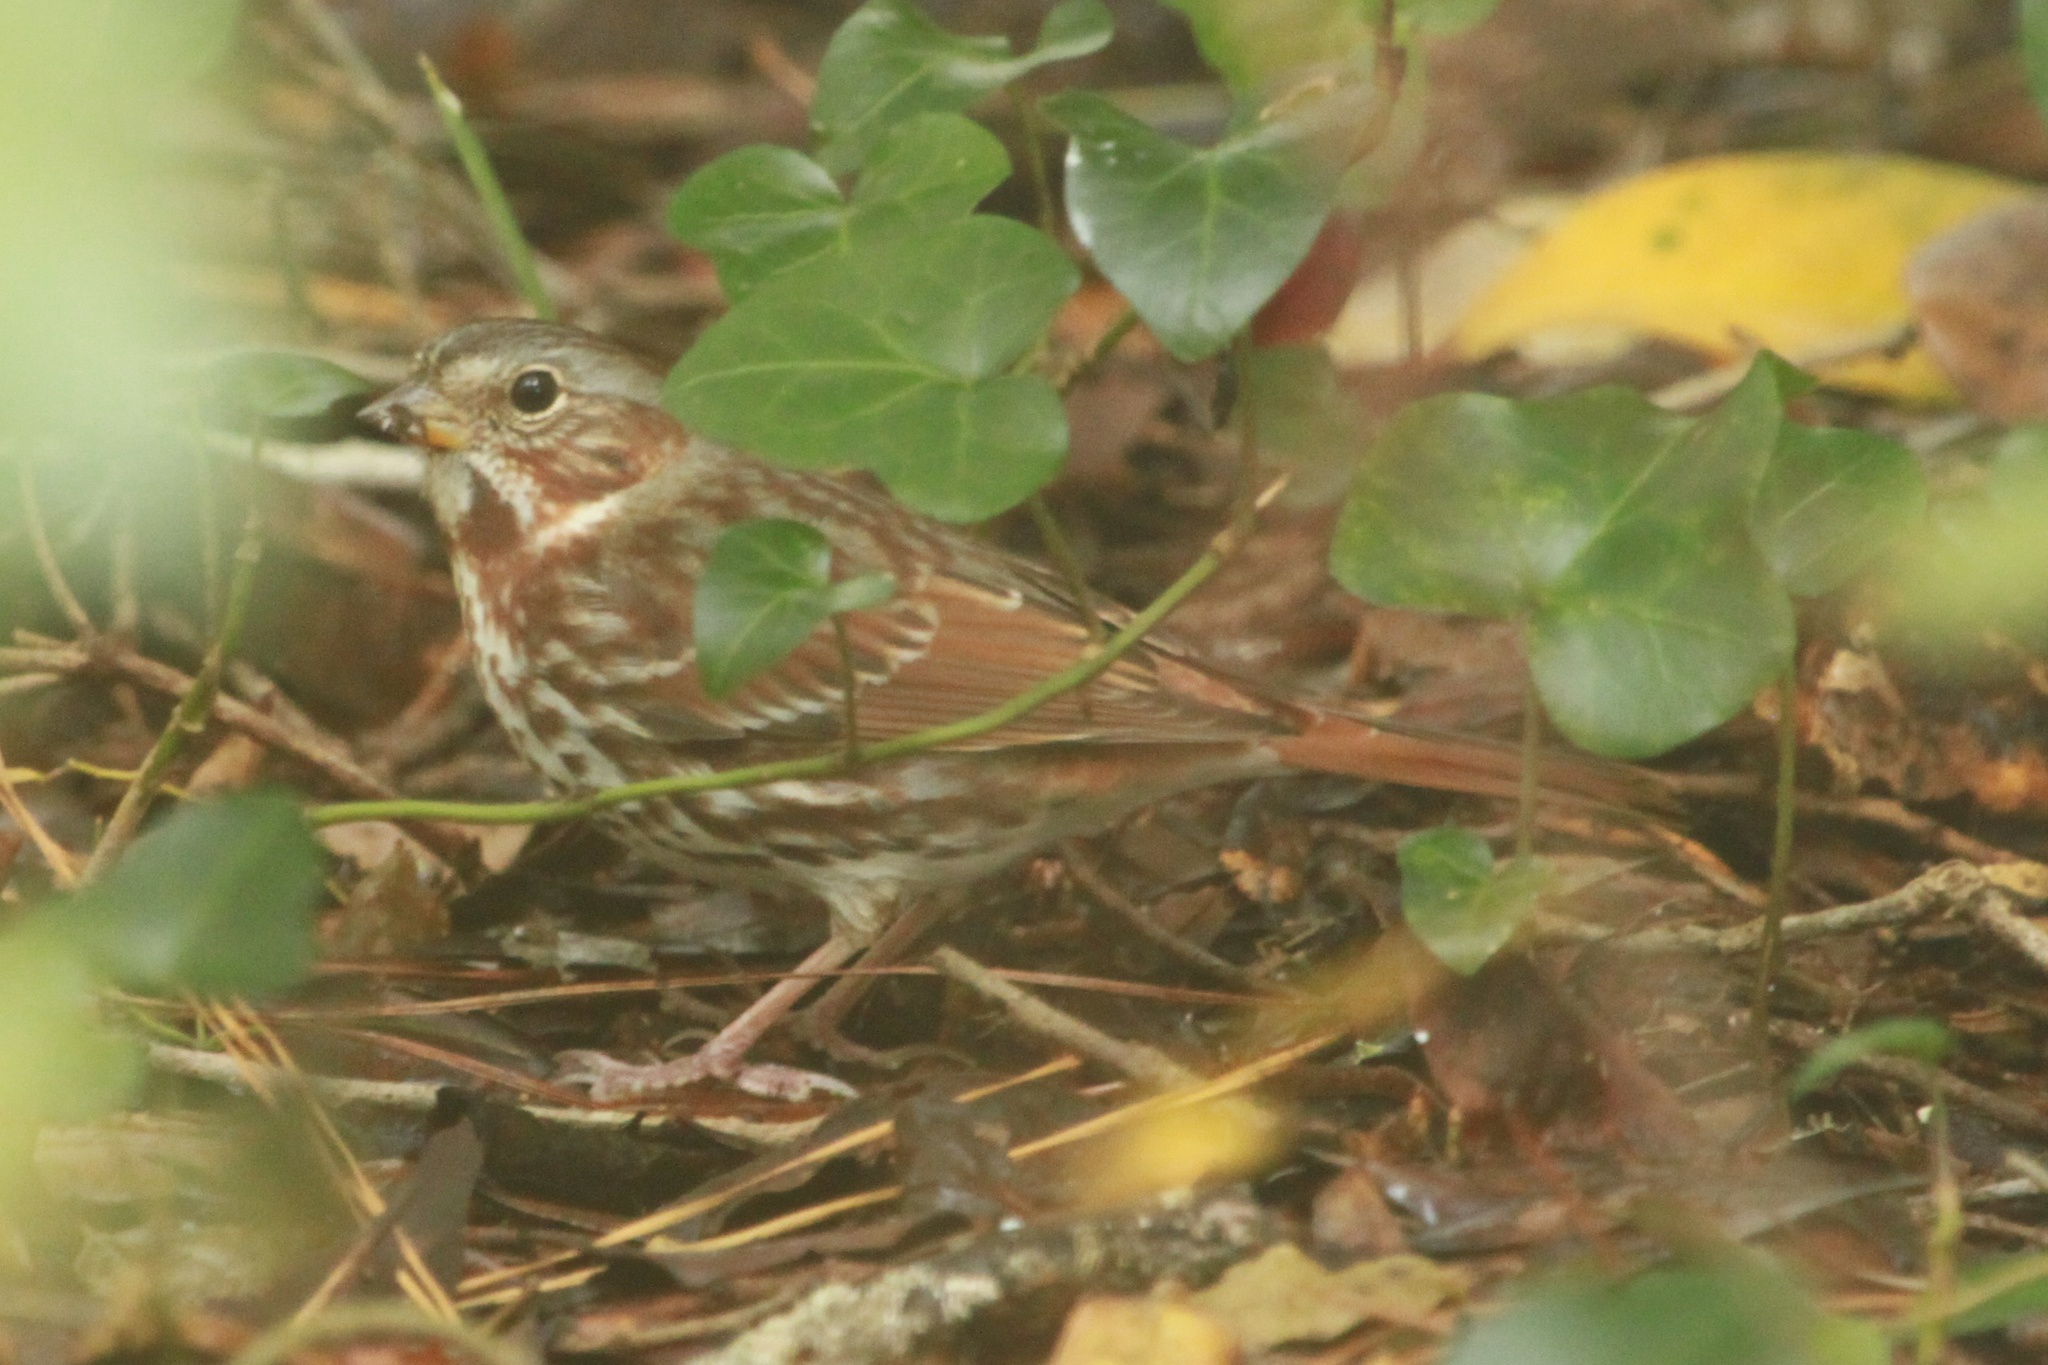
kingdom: Animalia
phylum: Chordata
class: Aves
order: Passeriformes
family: Passerellidae
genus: Passerella
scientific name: Passerella iliaca
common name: Fox sparrow
